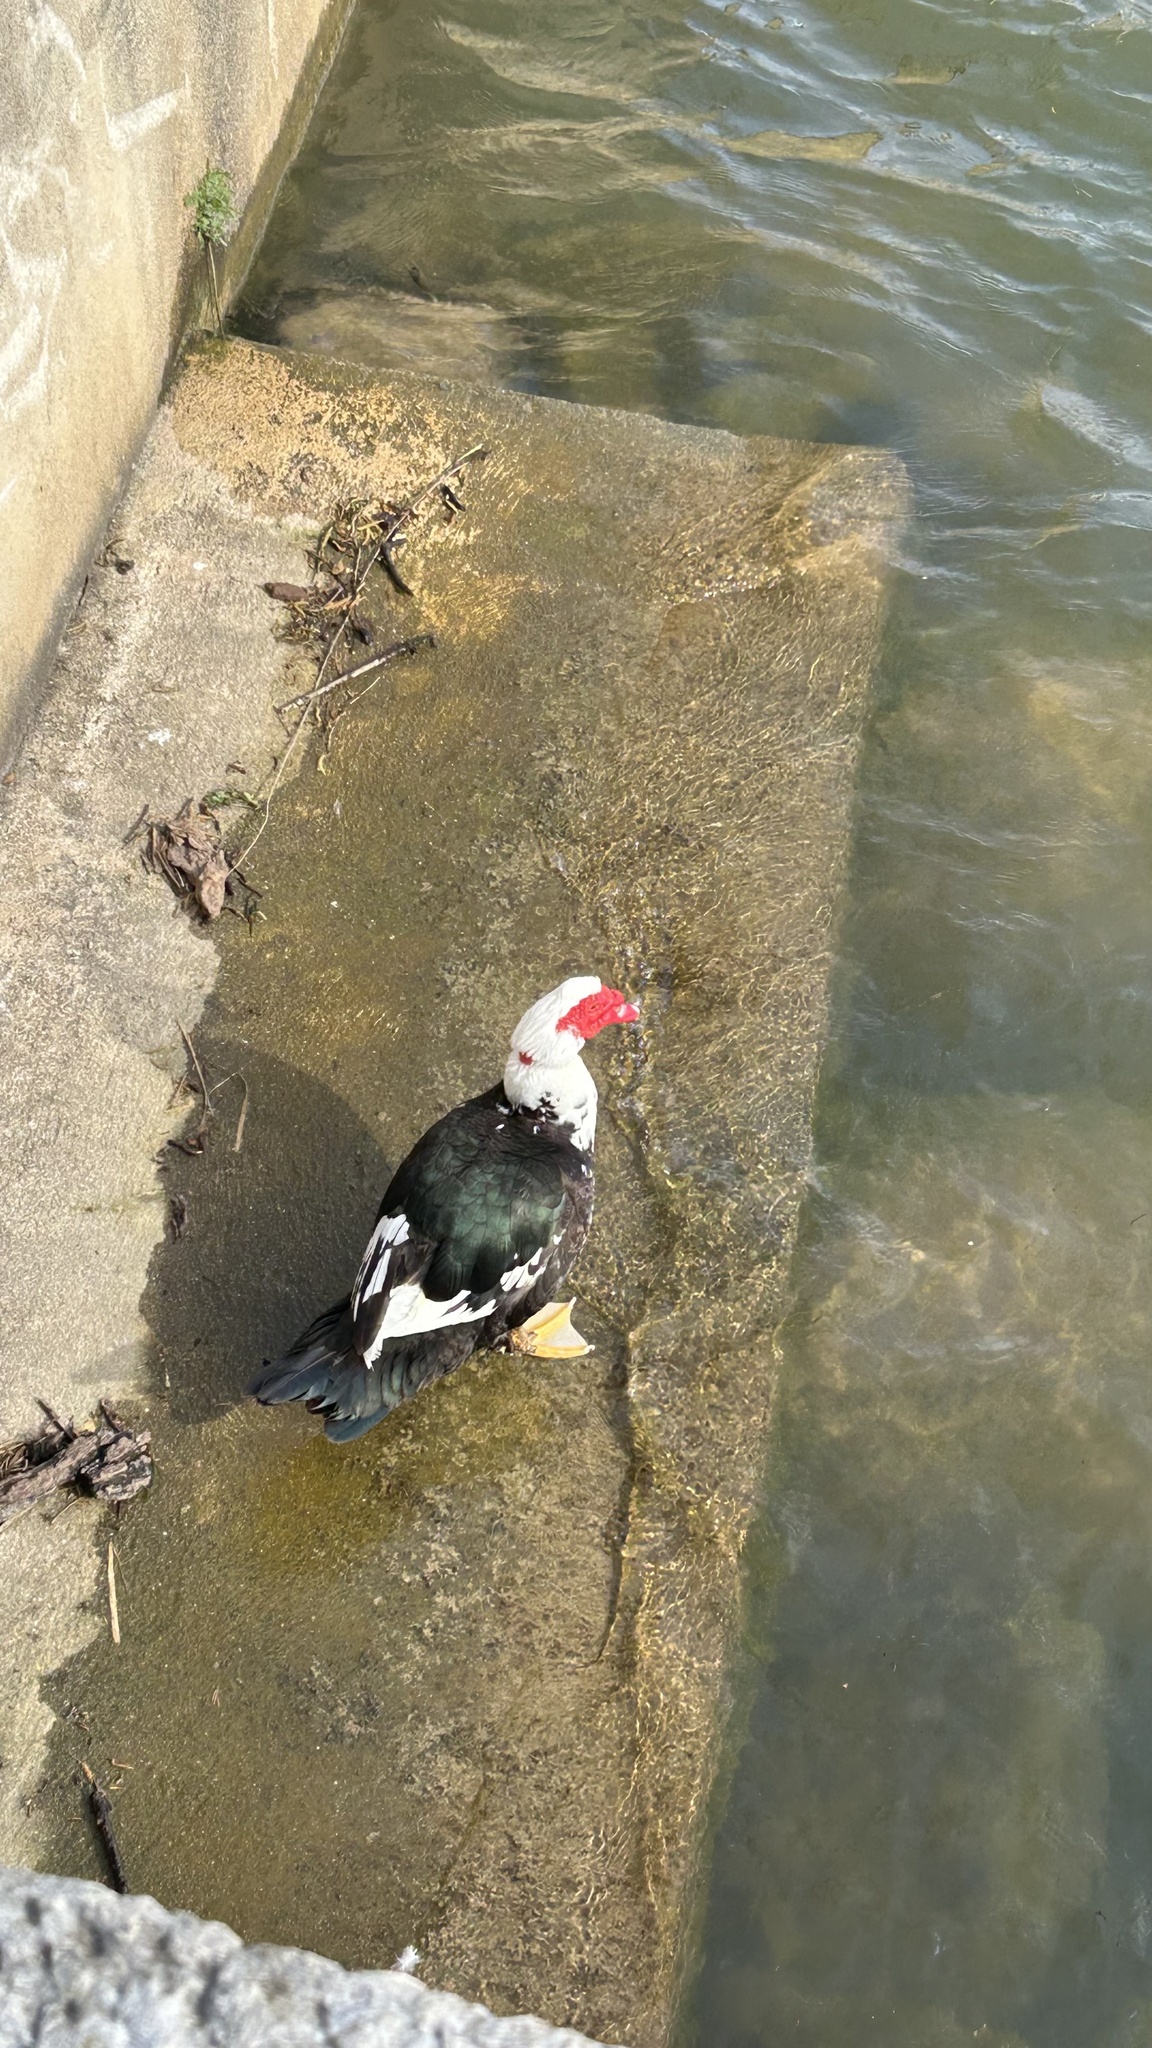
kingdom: Animalia
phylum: Chordata
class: Aves
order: Anseriformes
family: Anatidae
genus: Cairina
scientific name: Cairina moschata
